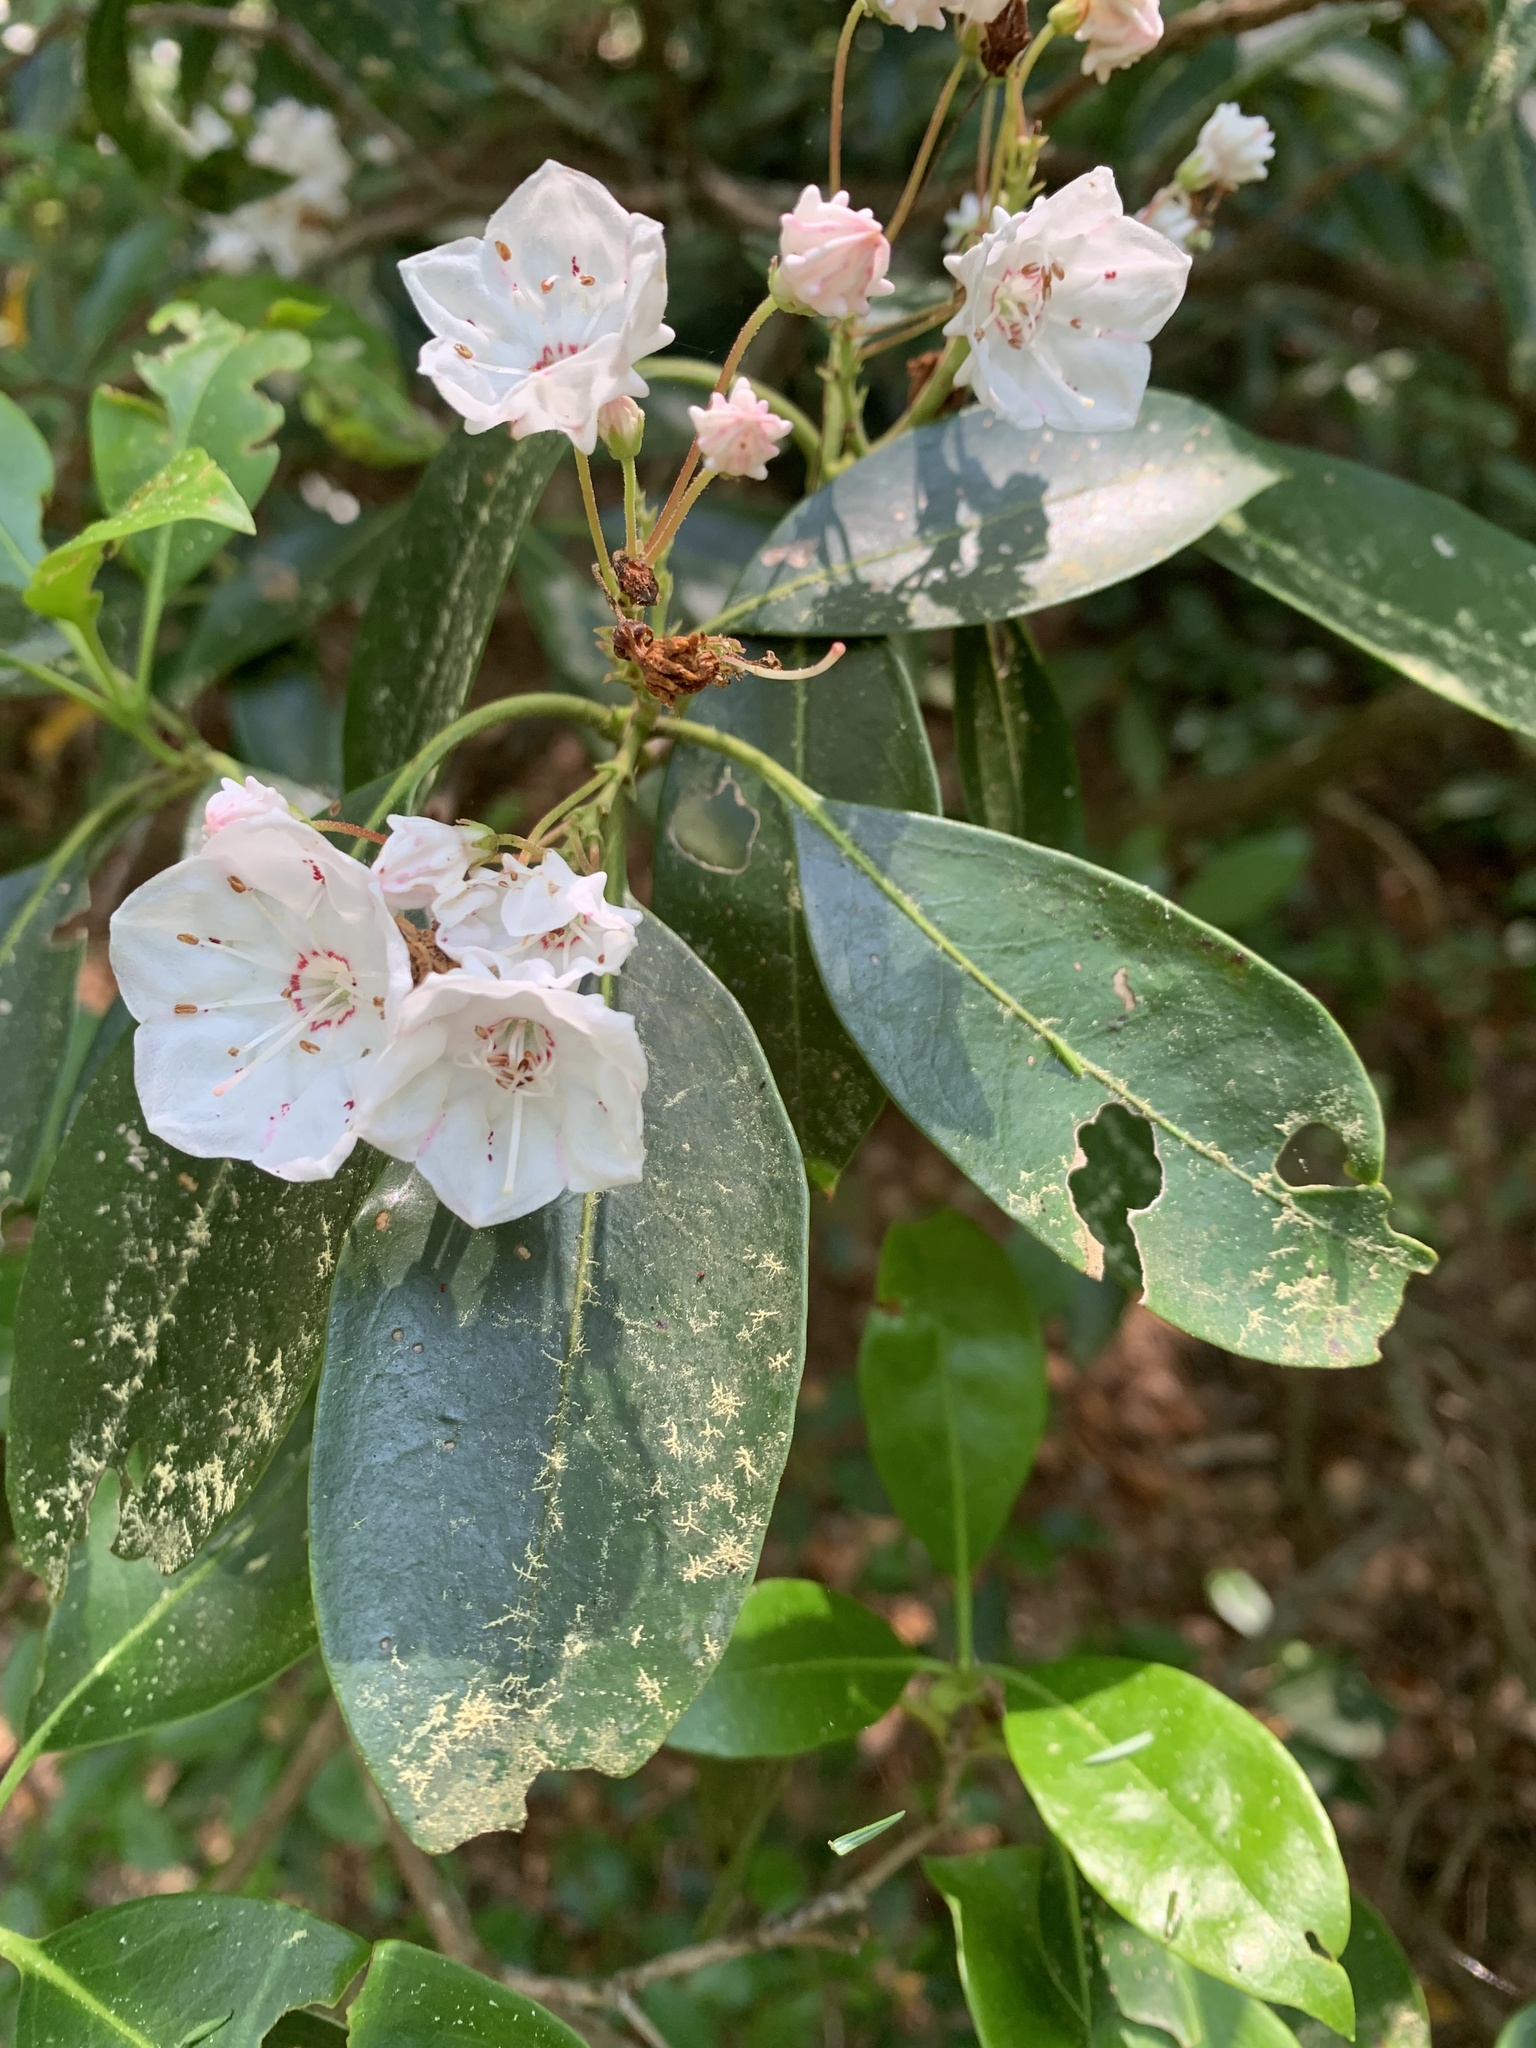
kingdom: Plantae
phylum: Tracheophyta
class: Magnoliopsida
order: Ericales
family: Ericaceae
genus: Kalmia
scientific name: Kalmia latifolia
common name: Mountain-laurel
